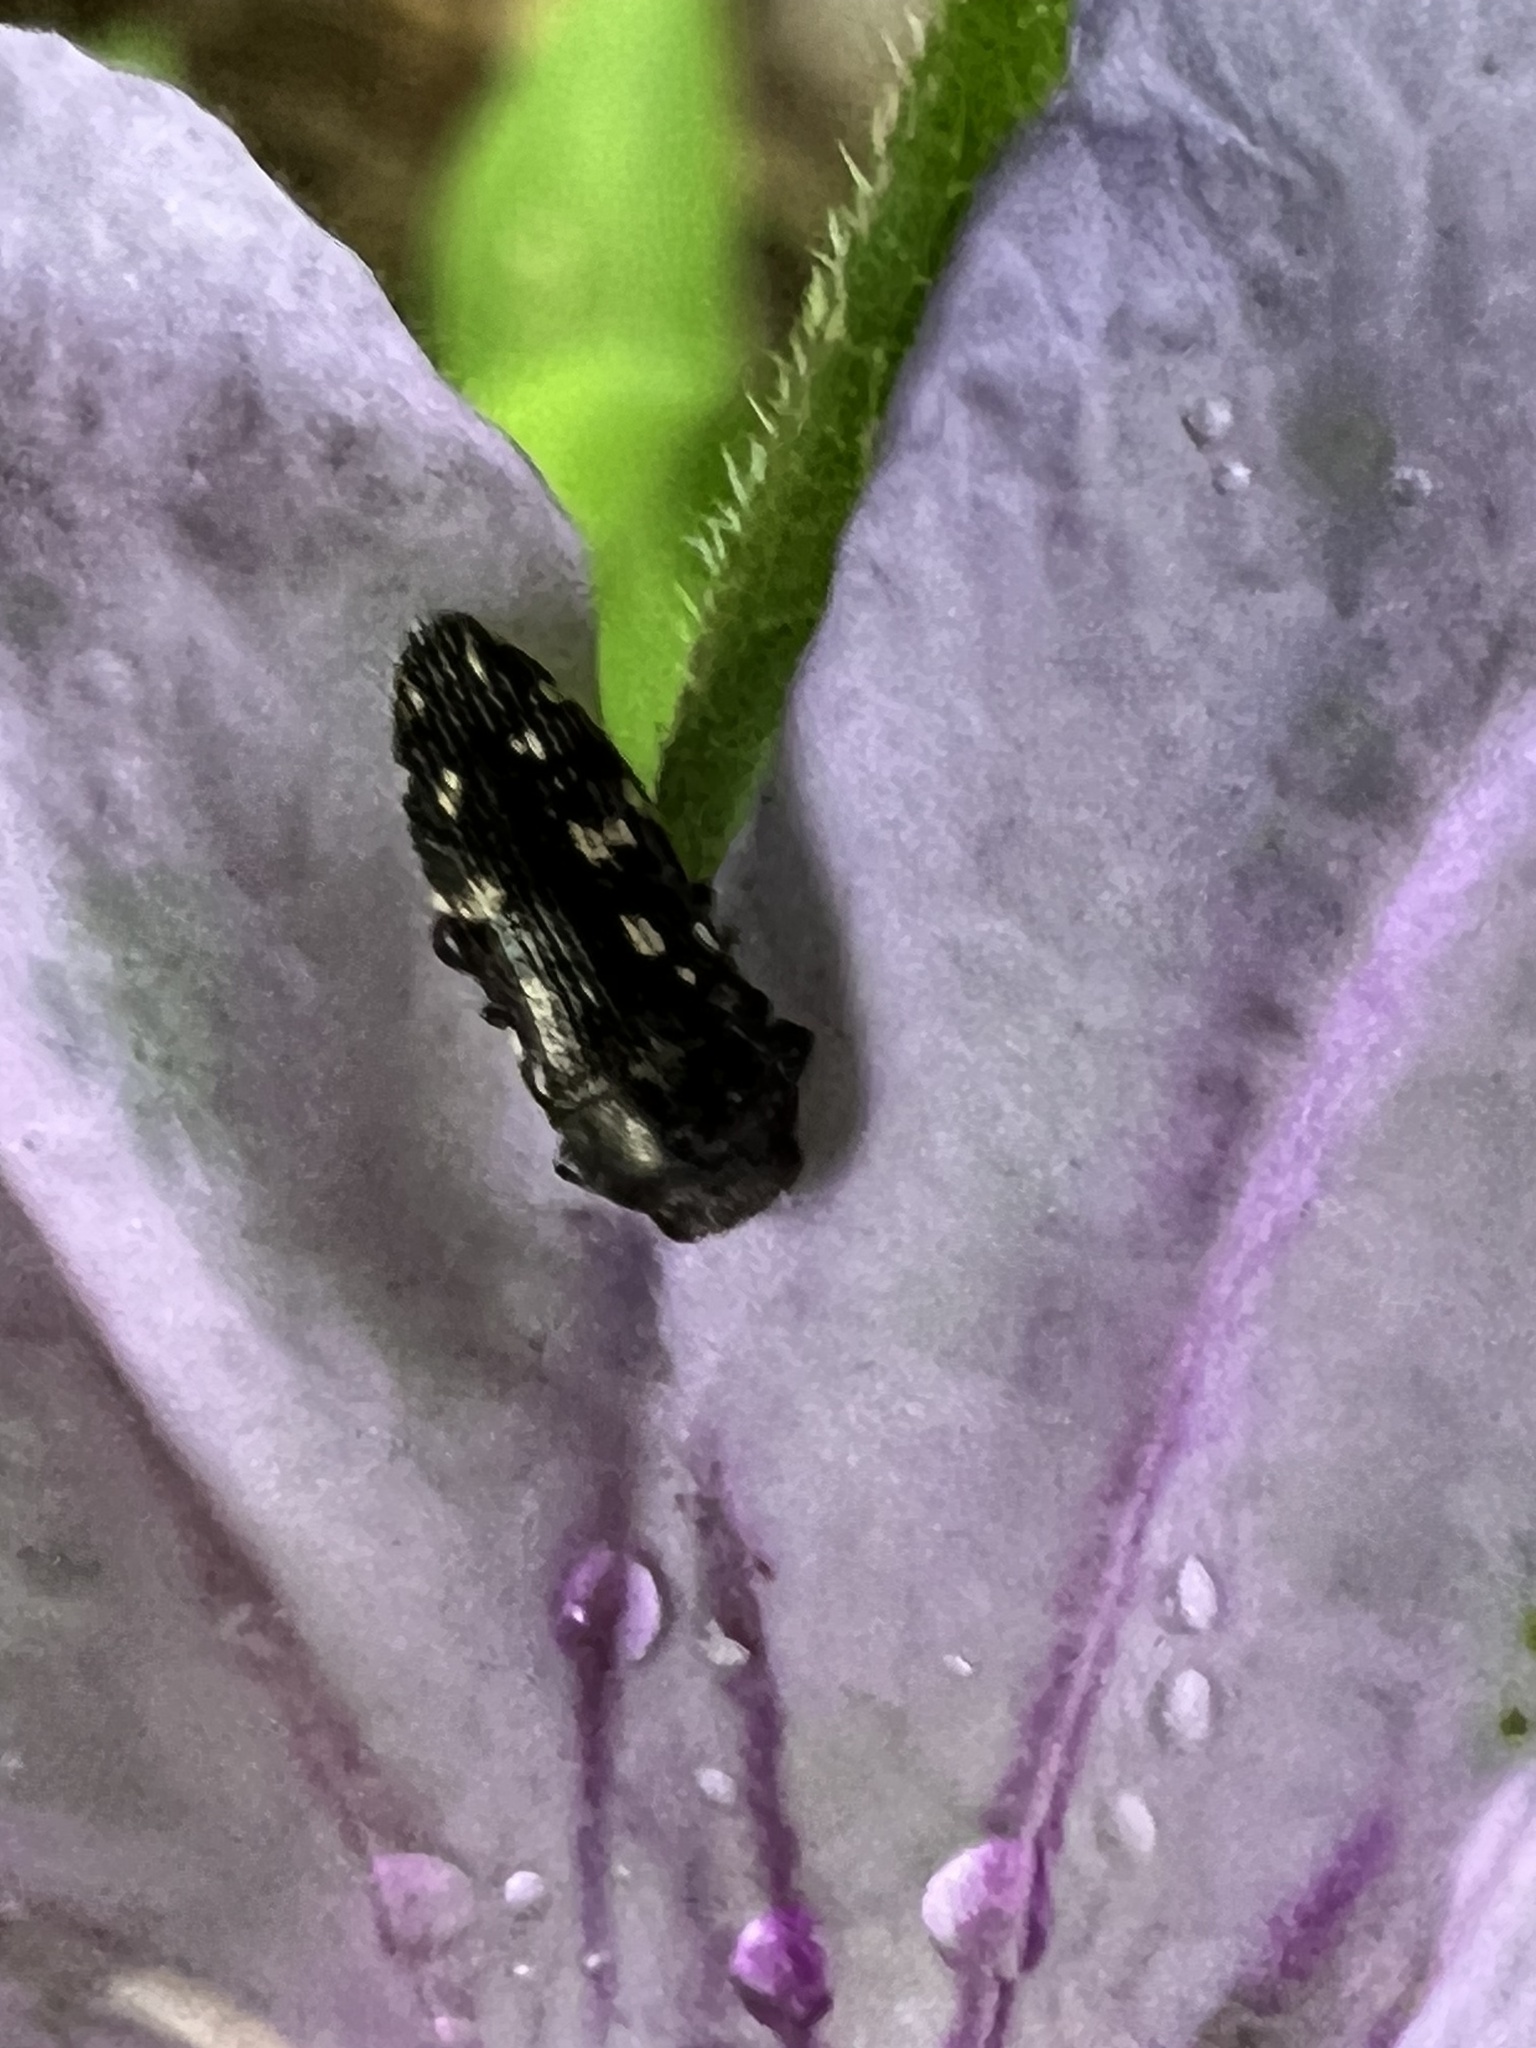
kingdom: Animalia
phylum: Arthropoda
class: Insecta
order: Coleoptera
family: Buprestidae
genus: Acmaeodera
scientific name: Acmaeodera tubulus
